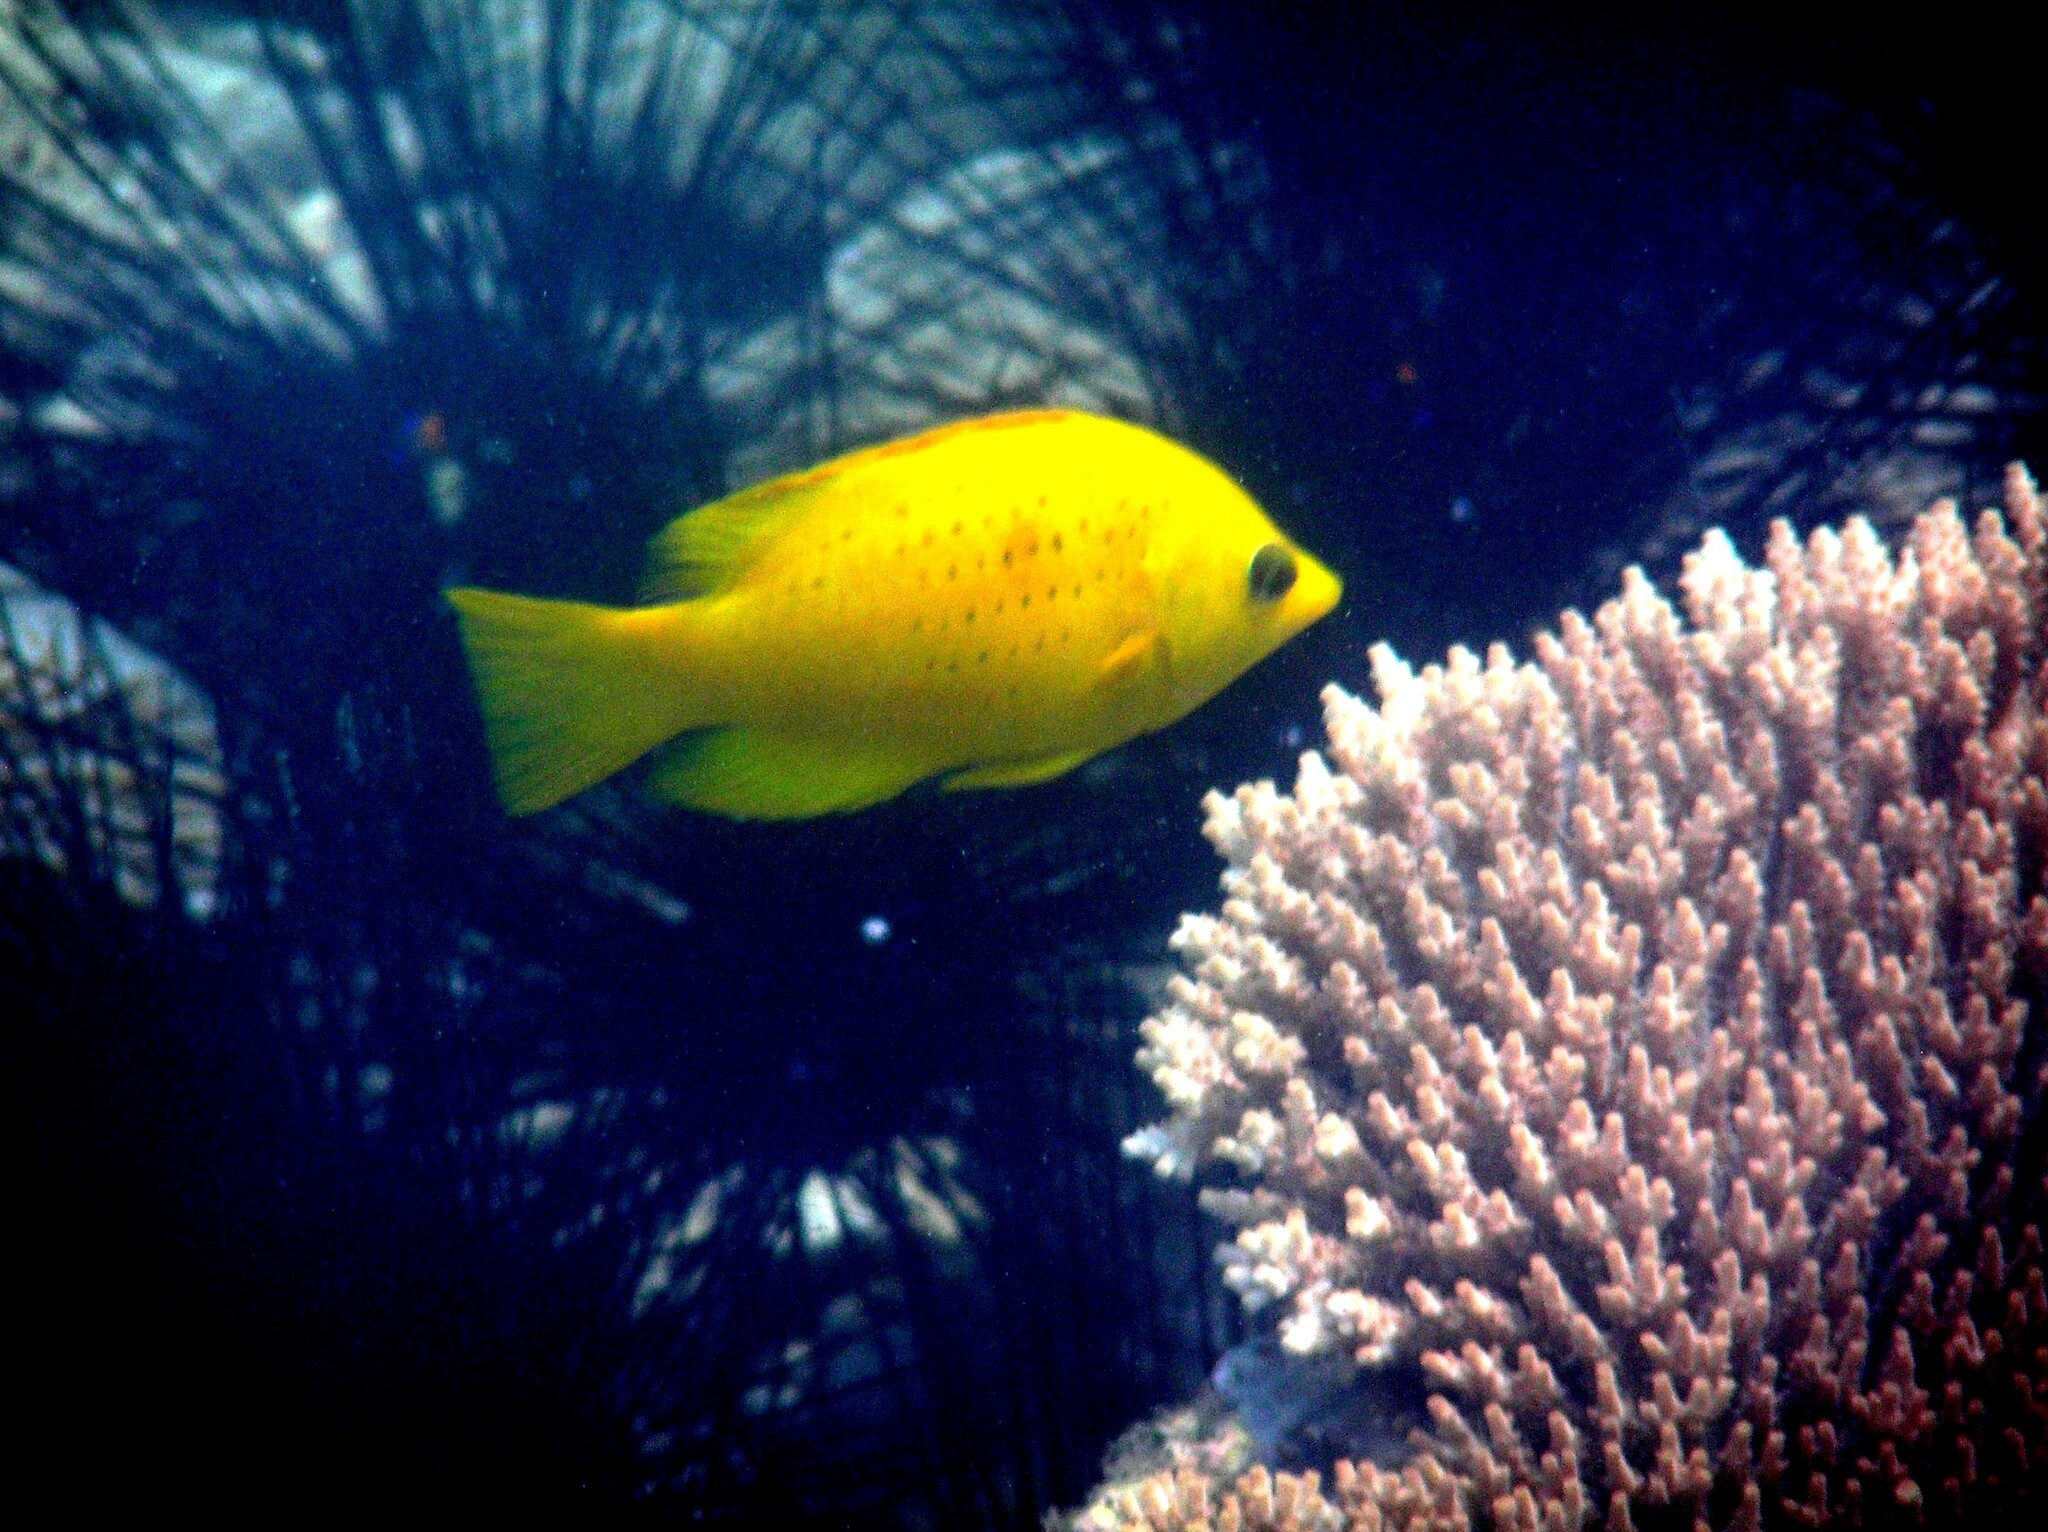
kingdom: Animalia
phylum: Chordata
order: Perciformes
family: Labridae
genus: Epibulus
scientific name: Epibulus insidiator
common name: Slingjaw wrasse
